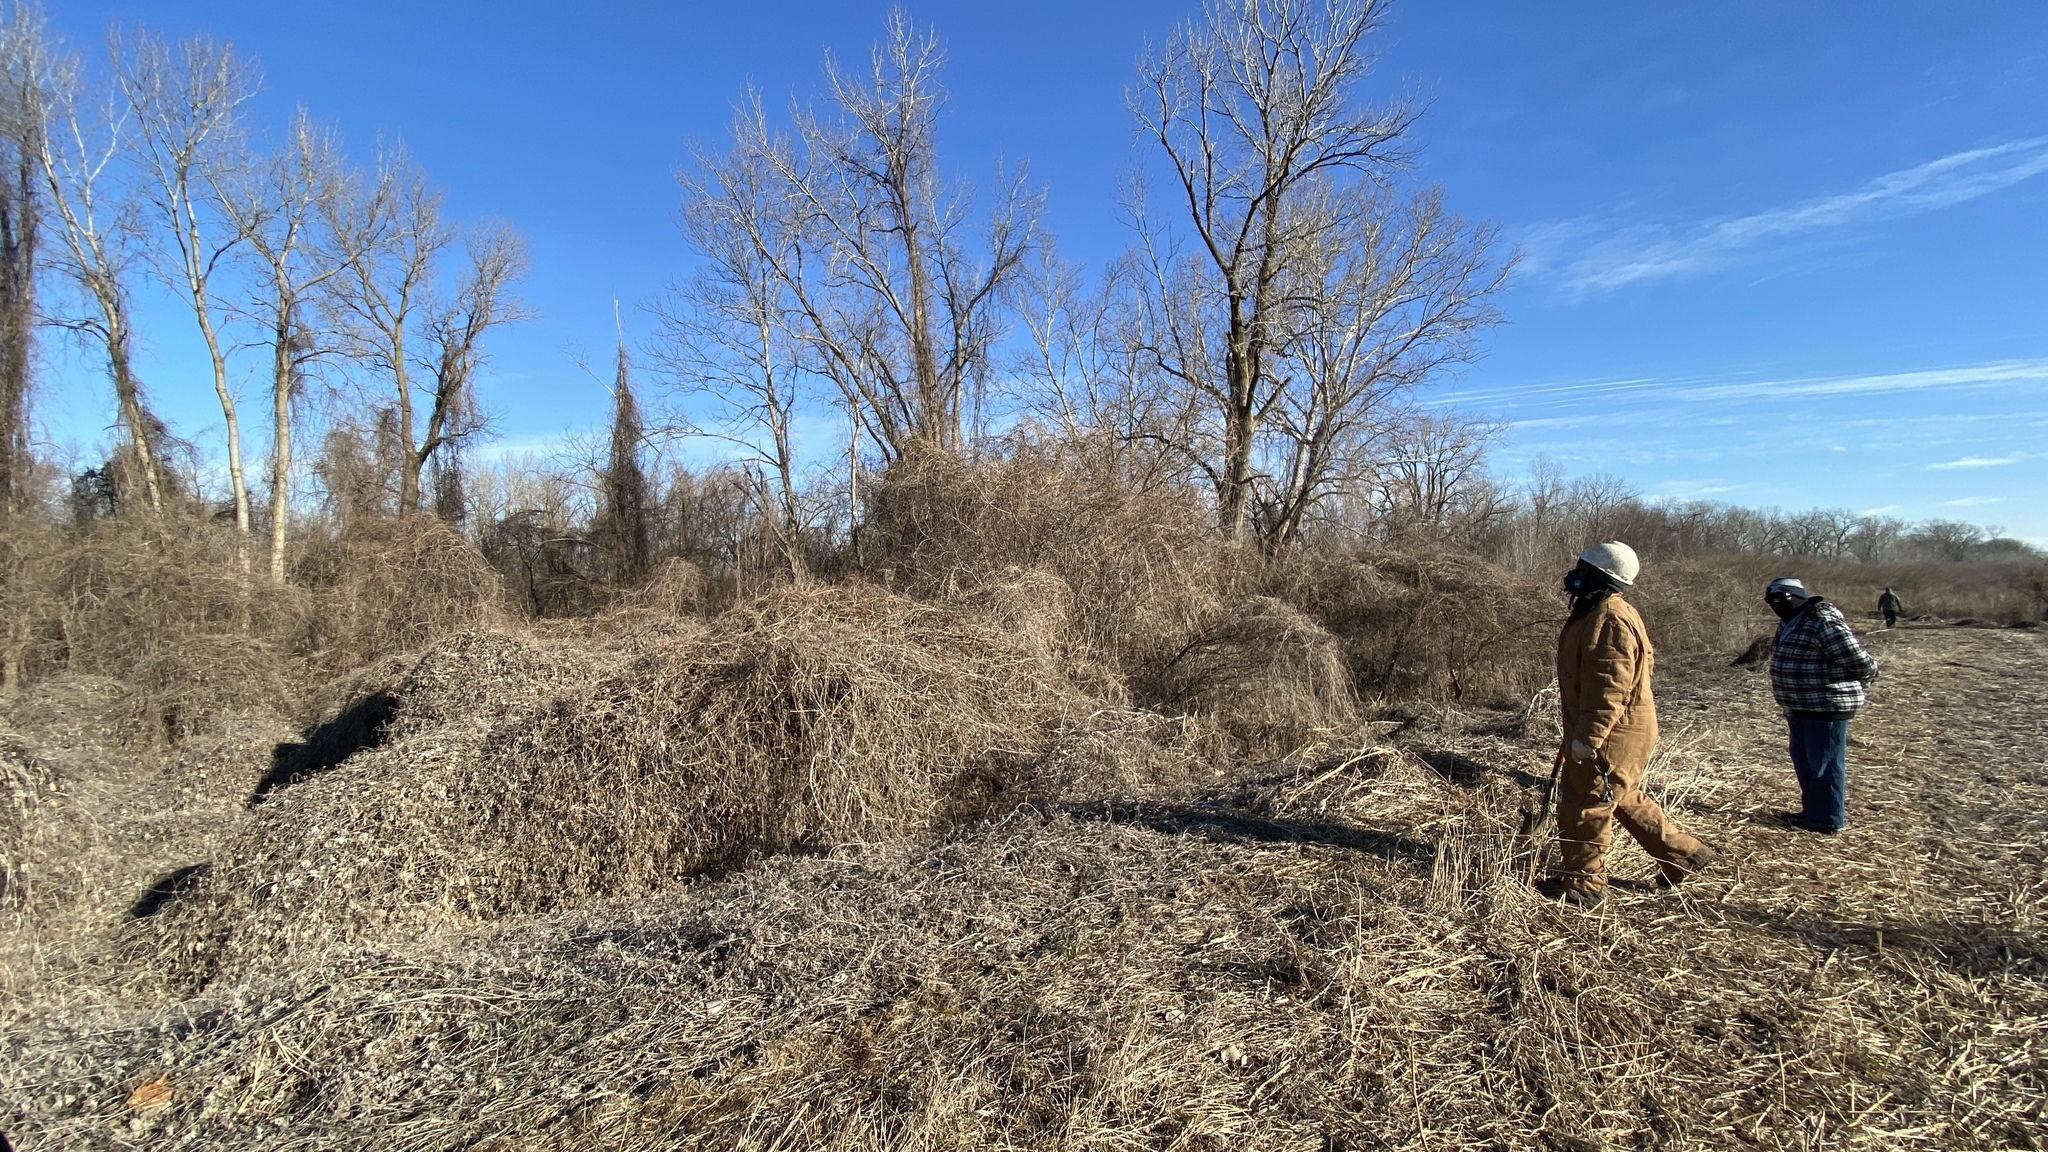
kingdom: Plantae
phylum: Tracheophyta
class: Magnoliopsida
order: Rosales
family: Cannabaceae
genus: Humulus
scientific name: Humulus scandens
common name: Japanese hop
